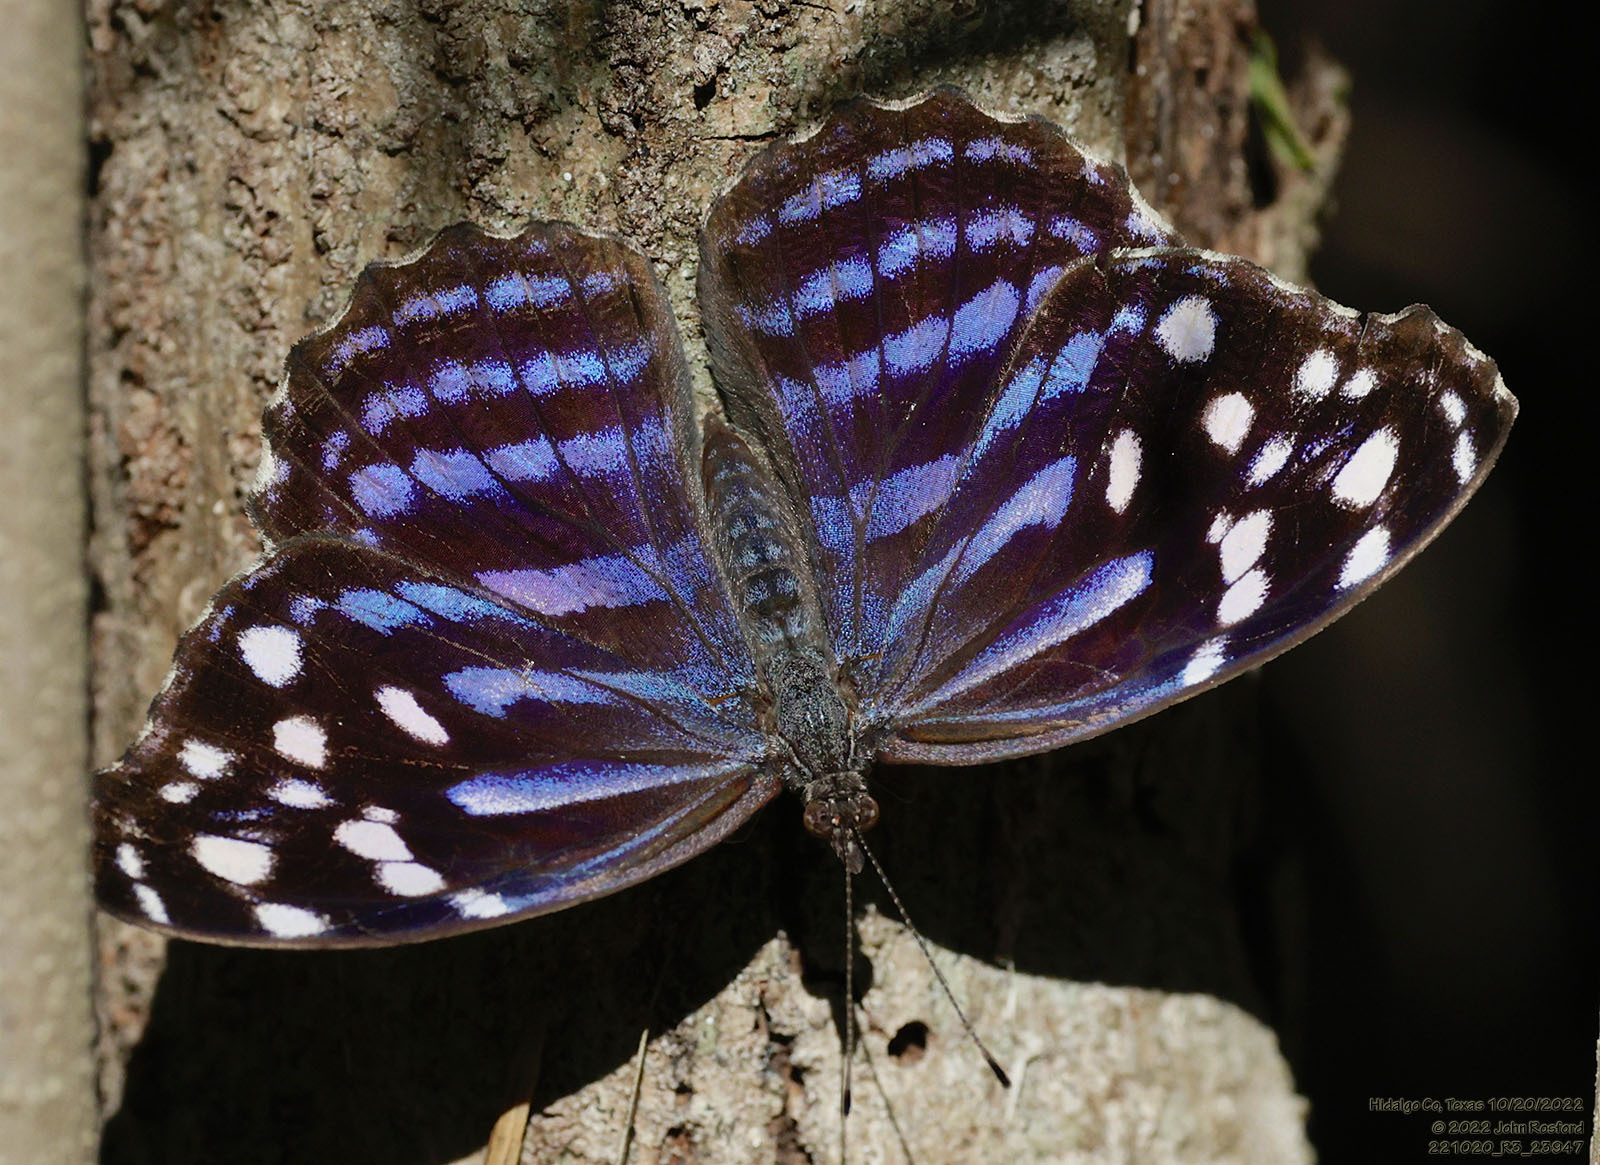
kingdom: Animalia
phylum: Arthropoda
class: Insecta
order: Lepidoptera
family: Nymphalidae
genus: Myscelia
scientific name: Myscelia ethusa
